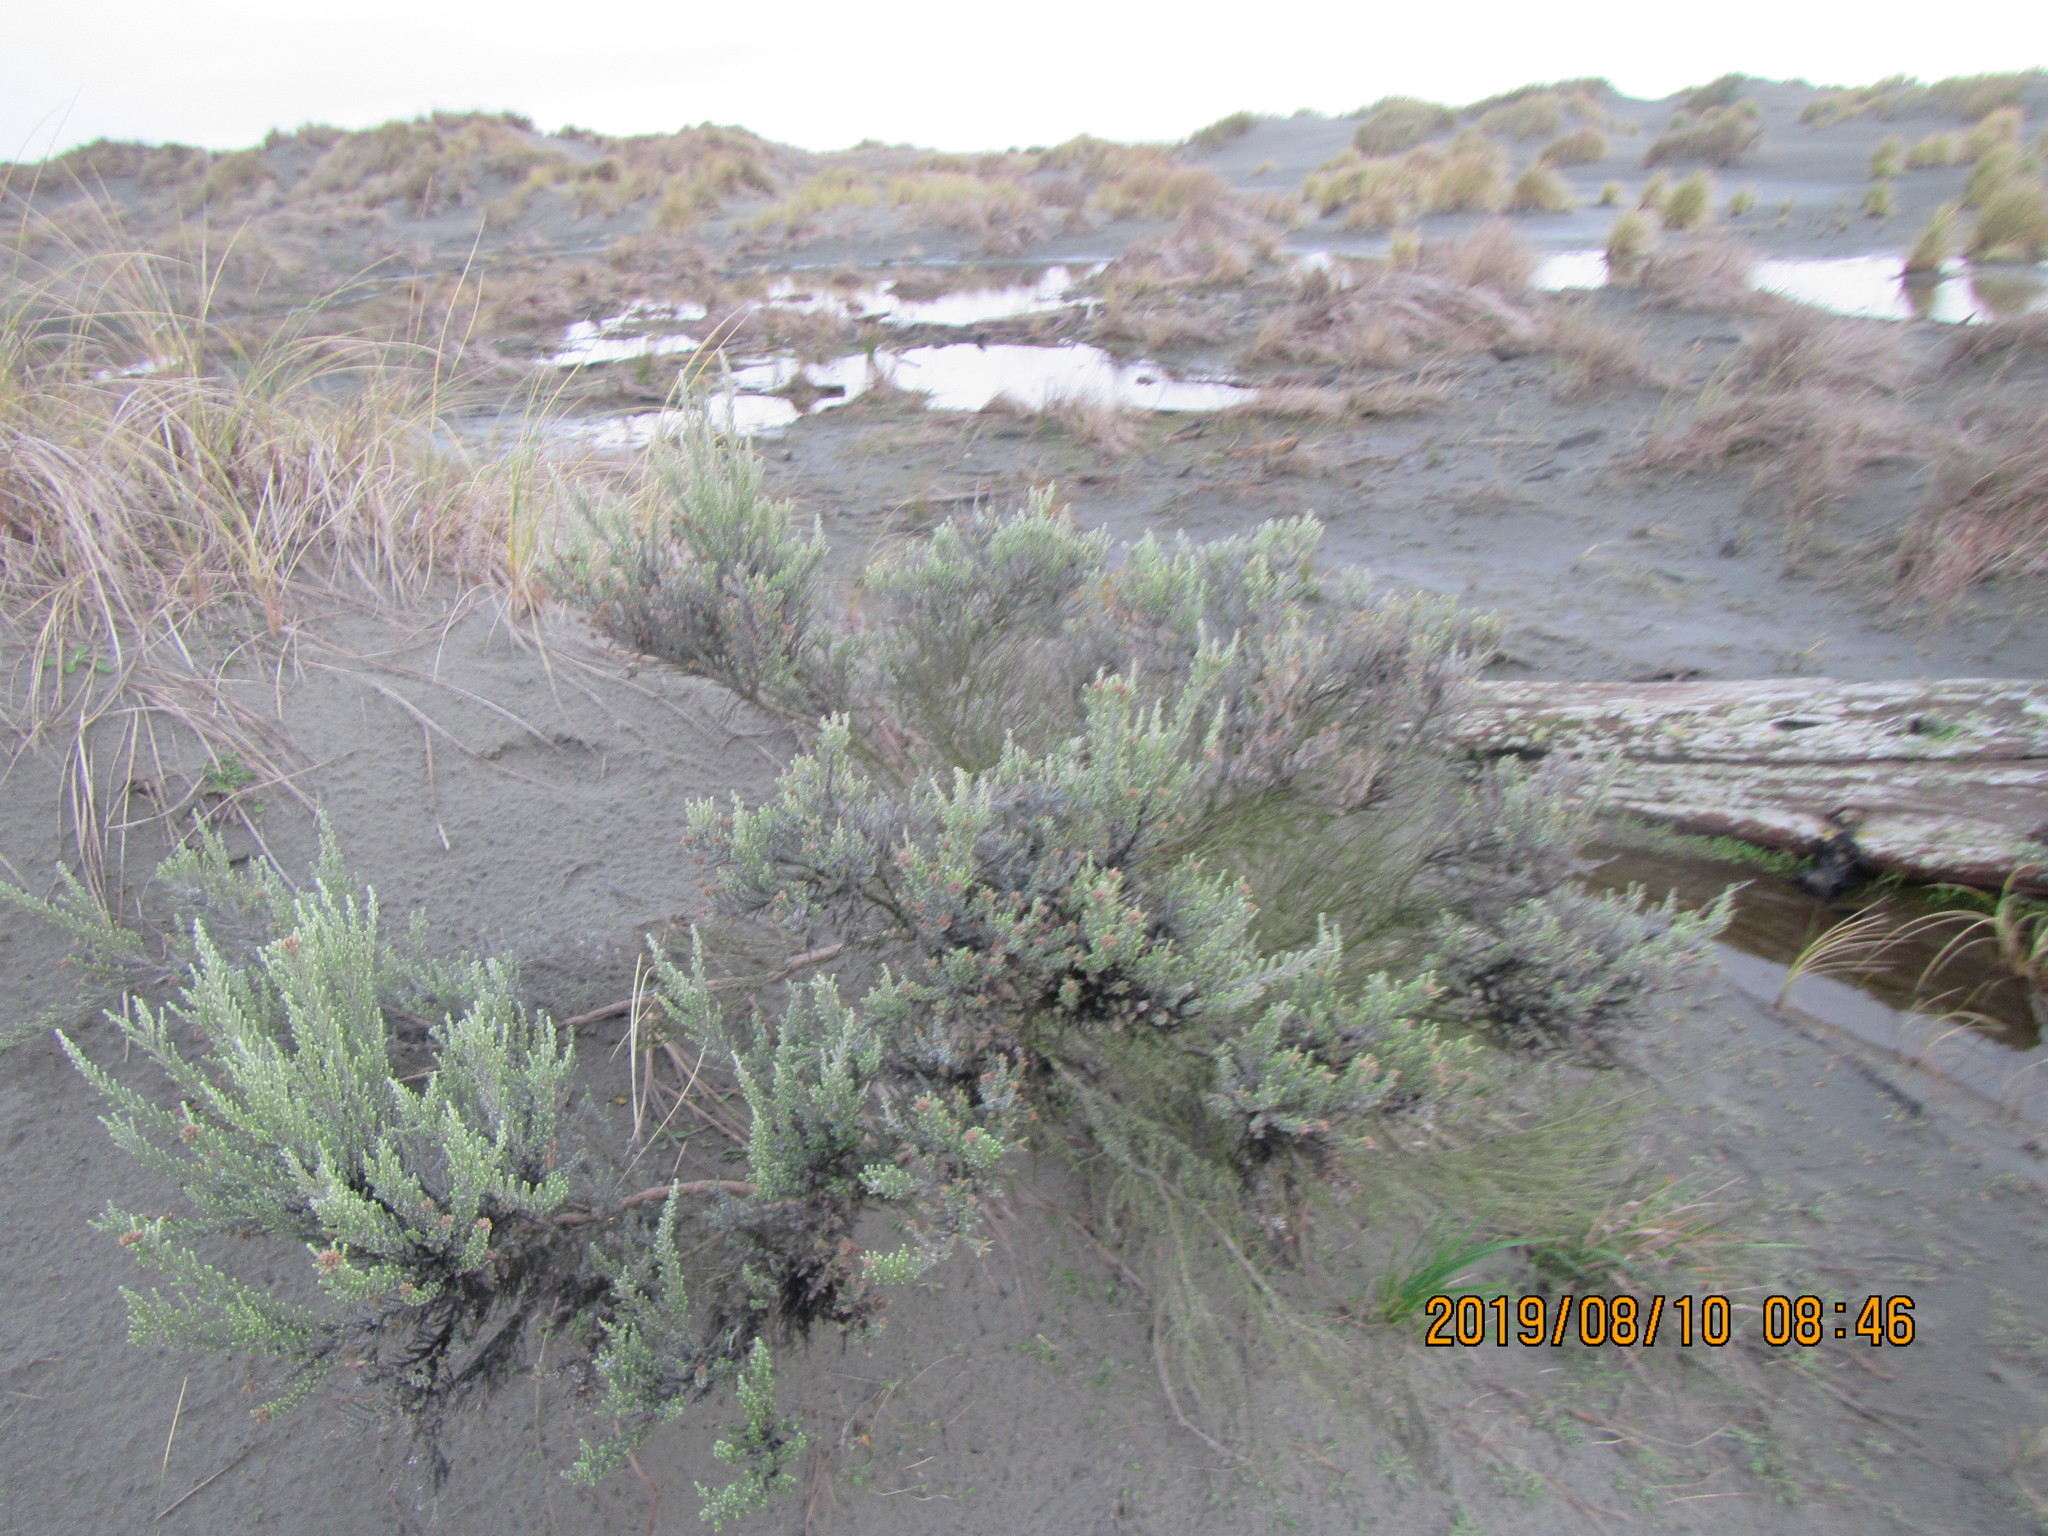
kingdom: Plantae
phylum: Tracheophyta
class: Magnoliopsida
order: Asterales
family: Asteraceae
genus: Ozothamnus
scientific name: Ozothamnus leptophyllus
